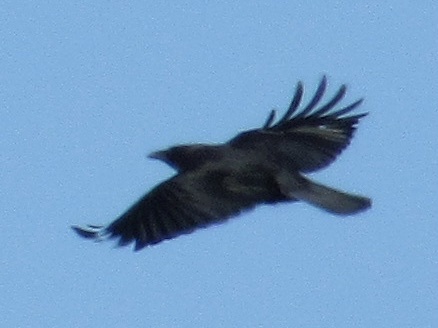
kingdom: Animalia
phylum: Chordata
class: Aves
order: Passeriformes
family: Corvidae
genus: Corvus
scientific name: Corvus brachyrhynchos
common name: American crow
